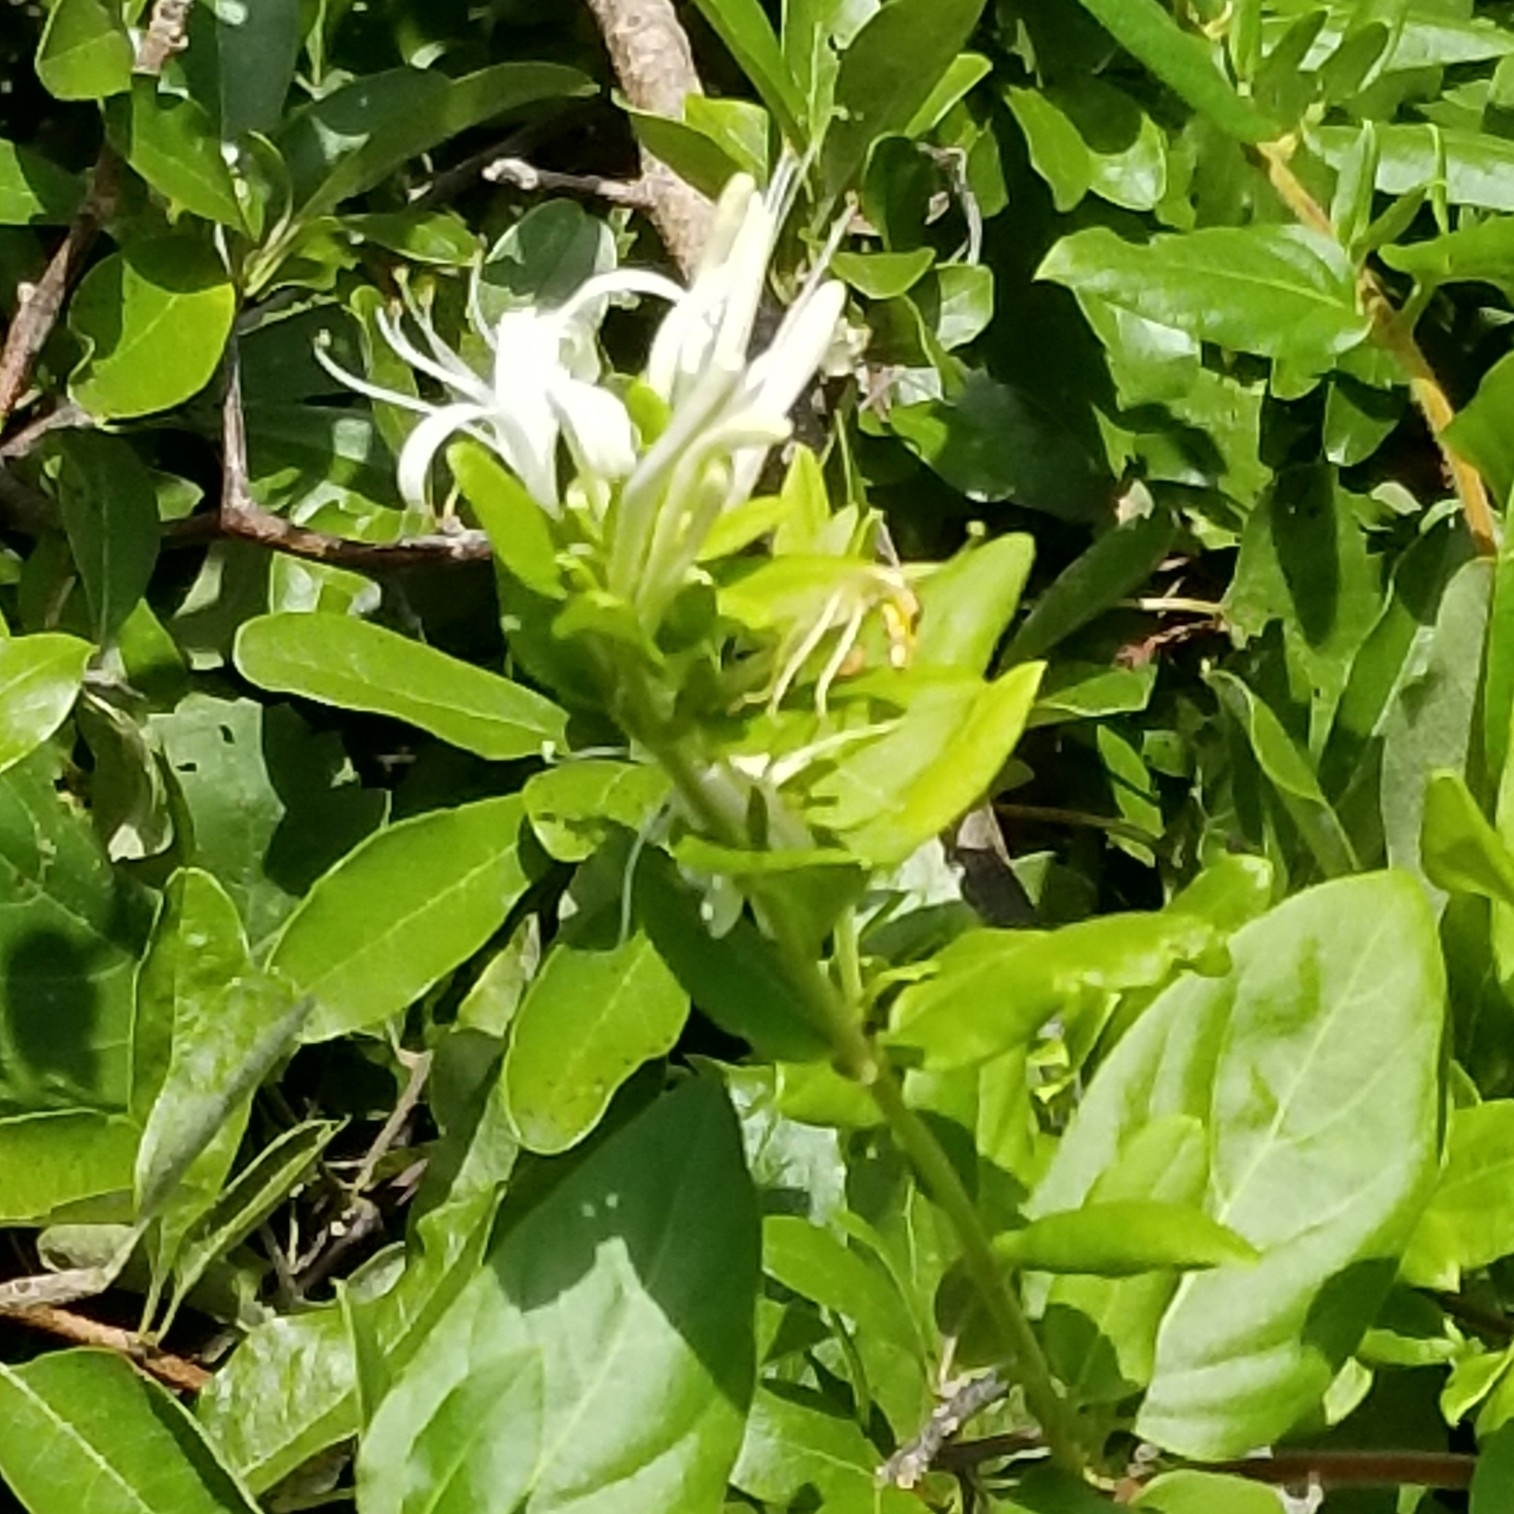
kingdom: Plantae
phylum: Tracheophyta
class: Magnoliopsida
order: Dipsacales
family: Caprifoliaceae
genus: Lonicera
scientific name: Lonicera japonica
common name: Japanese honeysuckle
